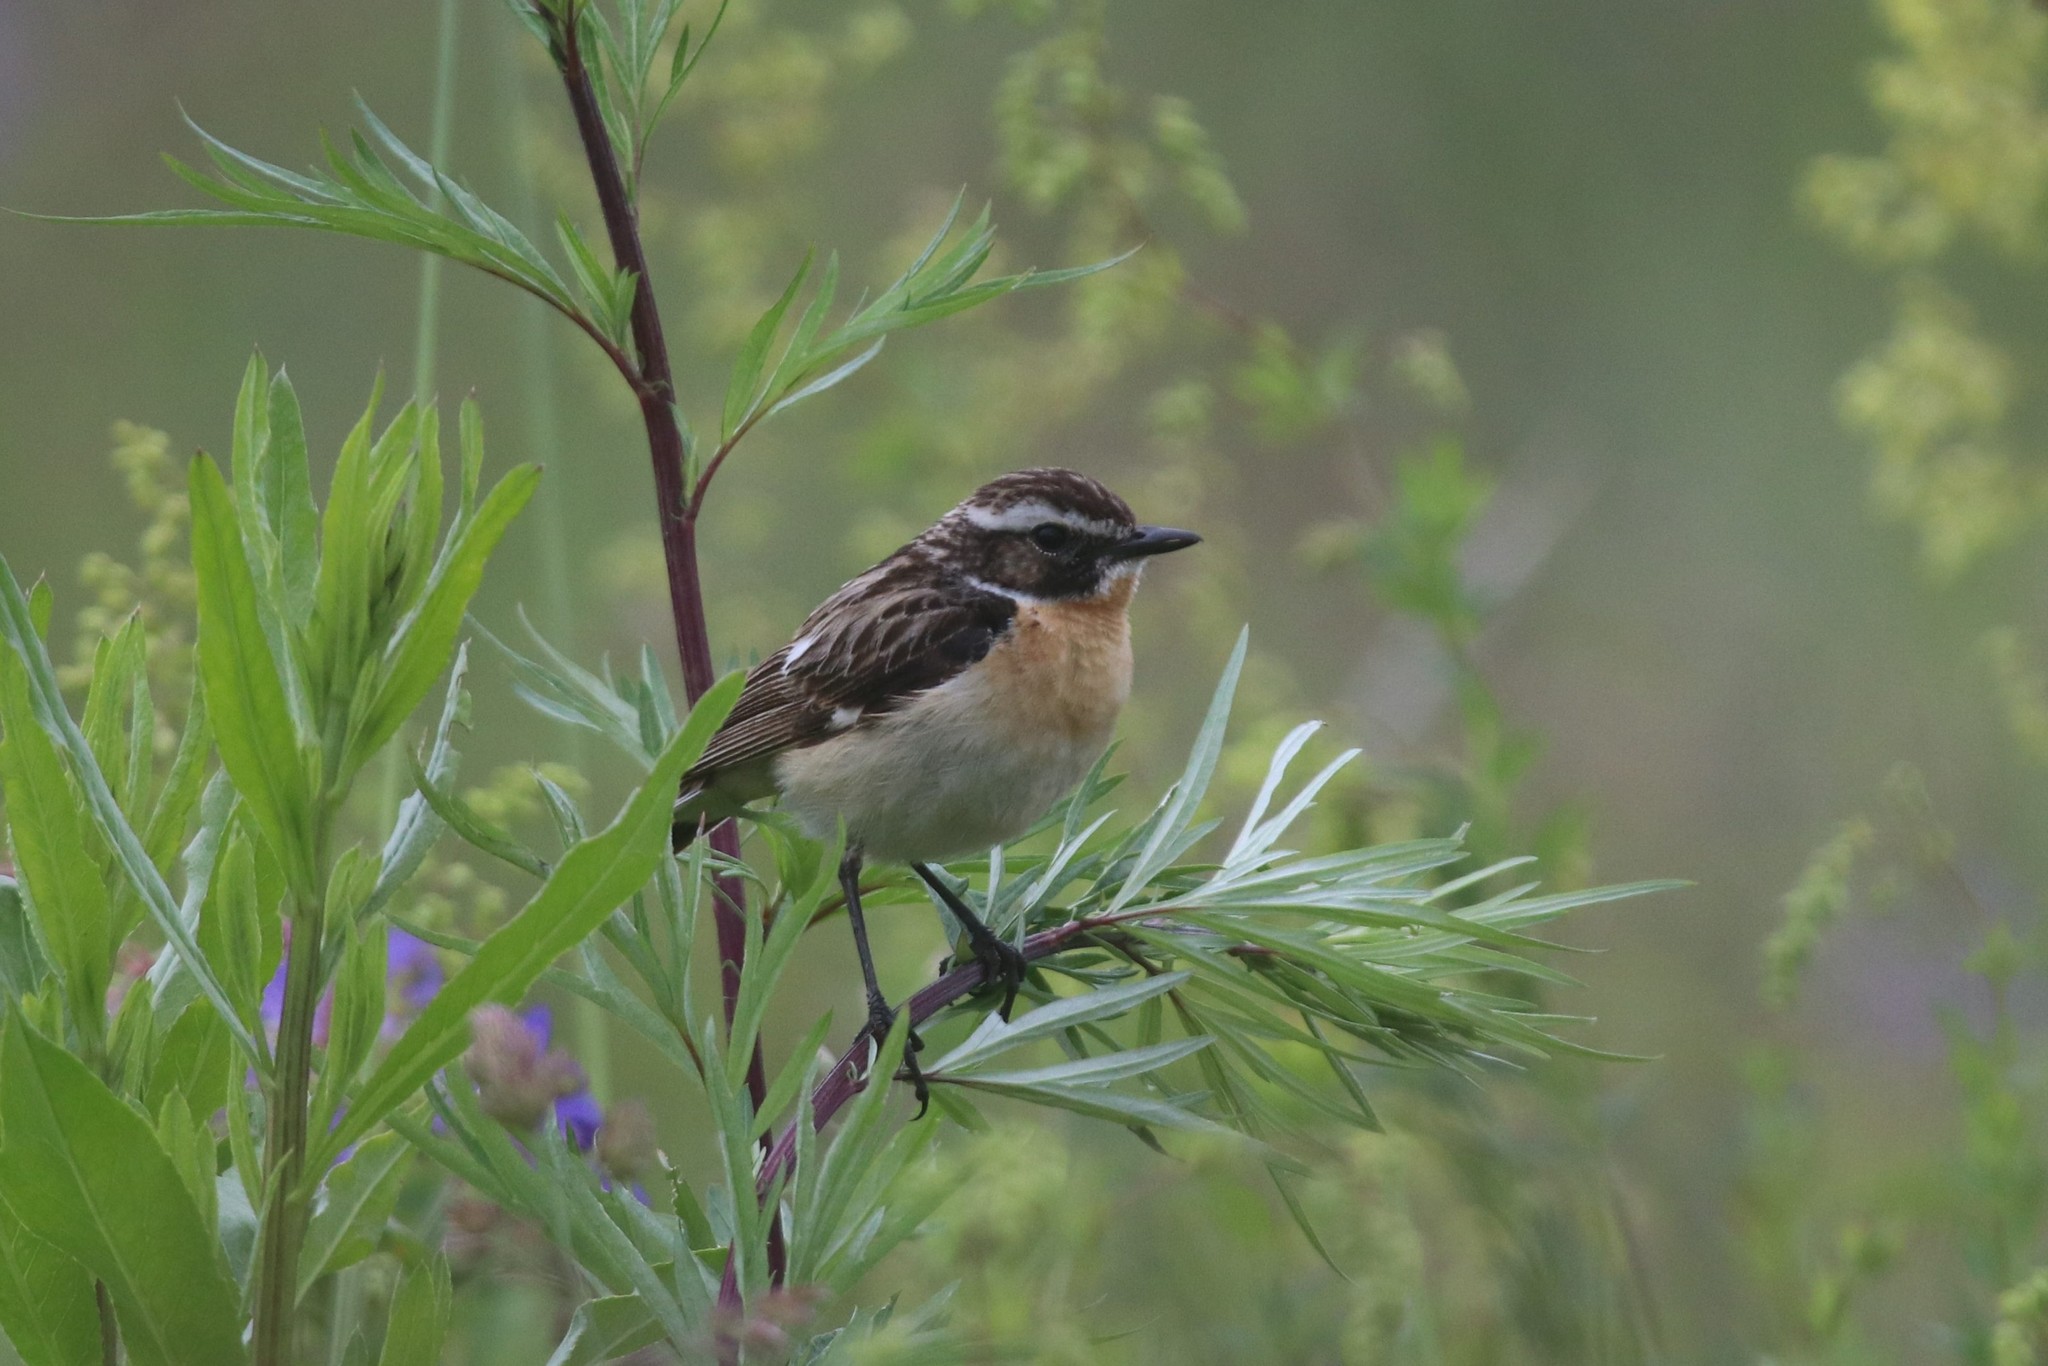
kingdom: Animalia
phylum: Chordata
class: Aves
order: Passeriformes
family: Muscicapidae
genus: Saxicola
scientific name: Saxicola rubetra
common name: Whinchat
